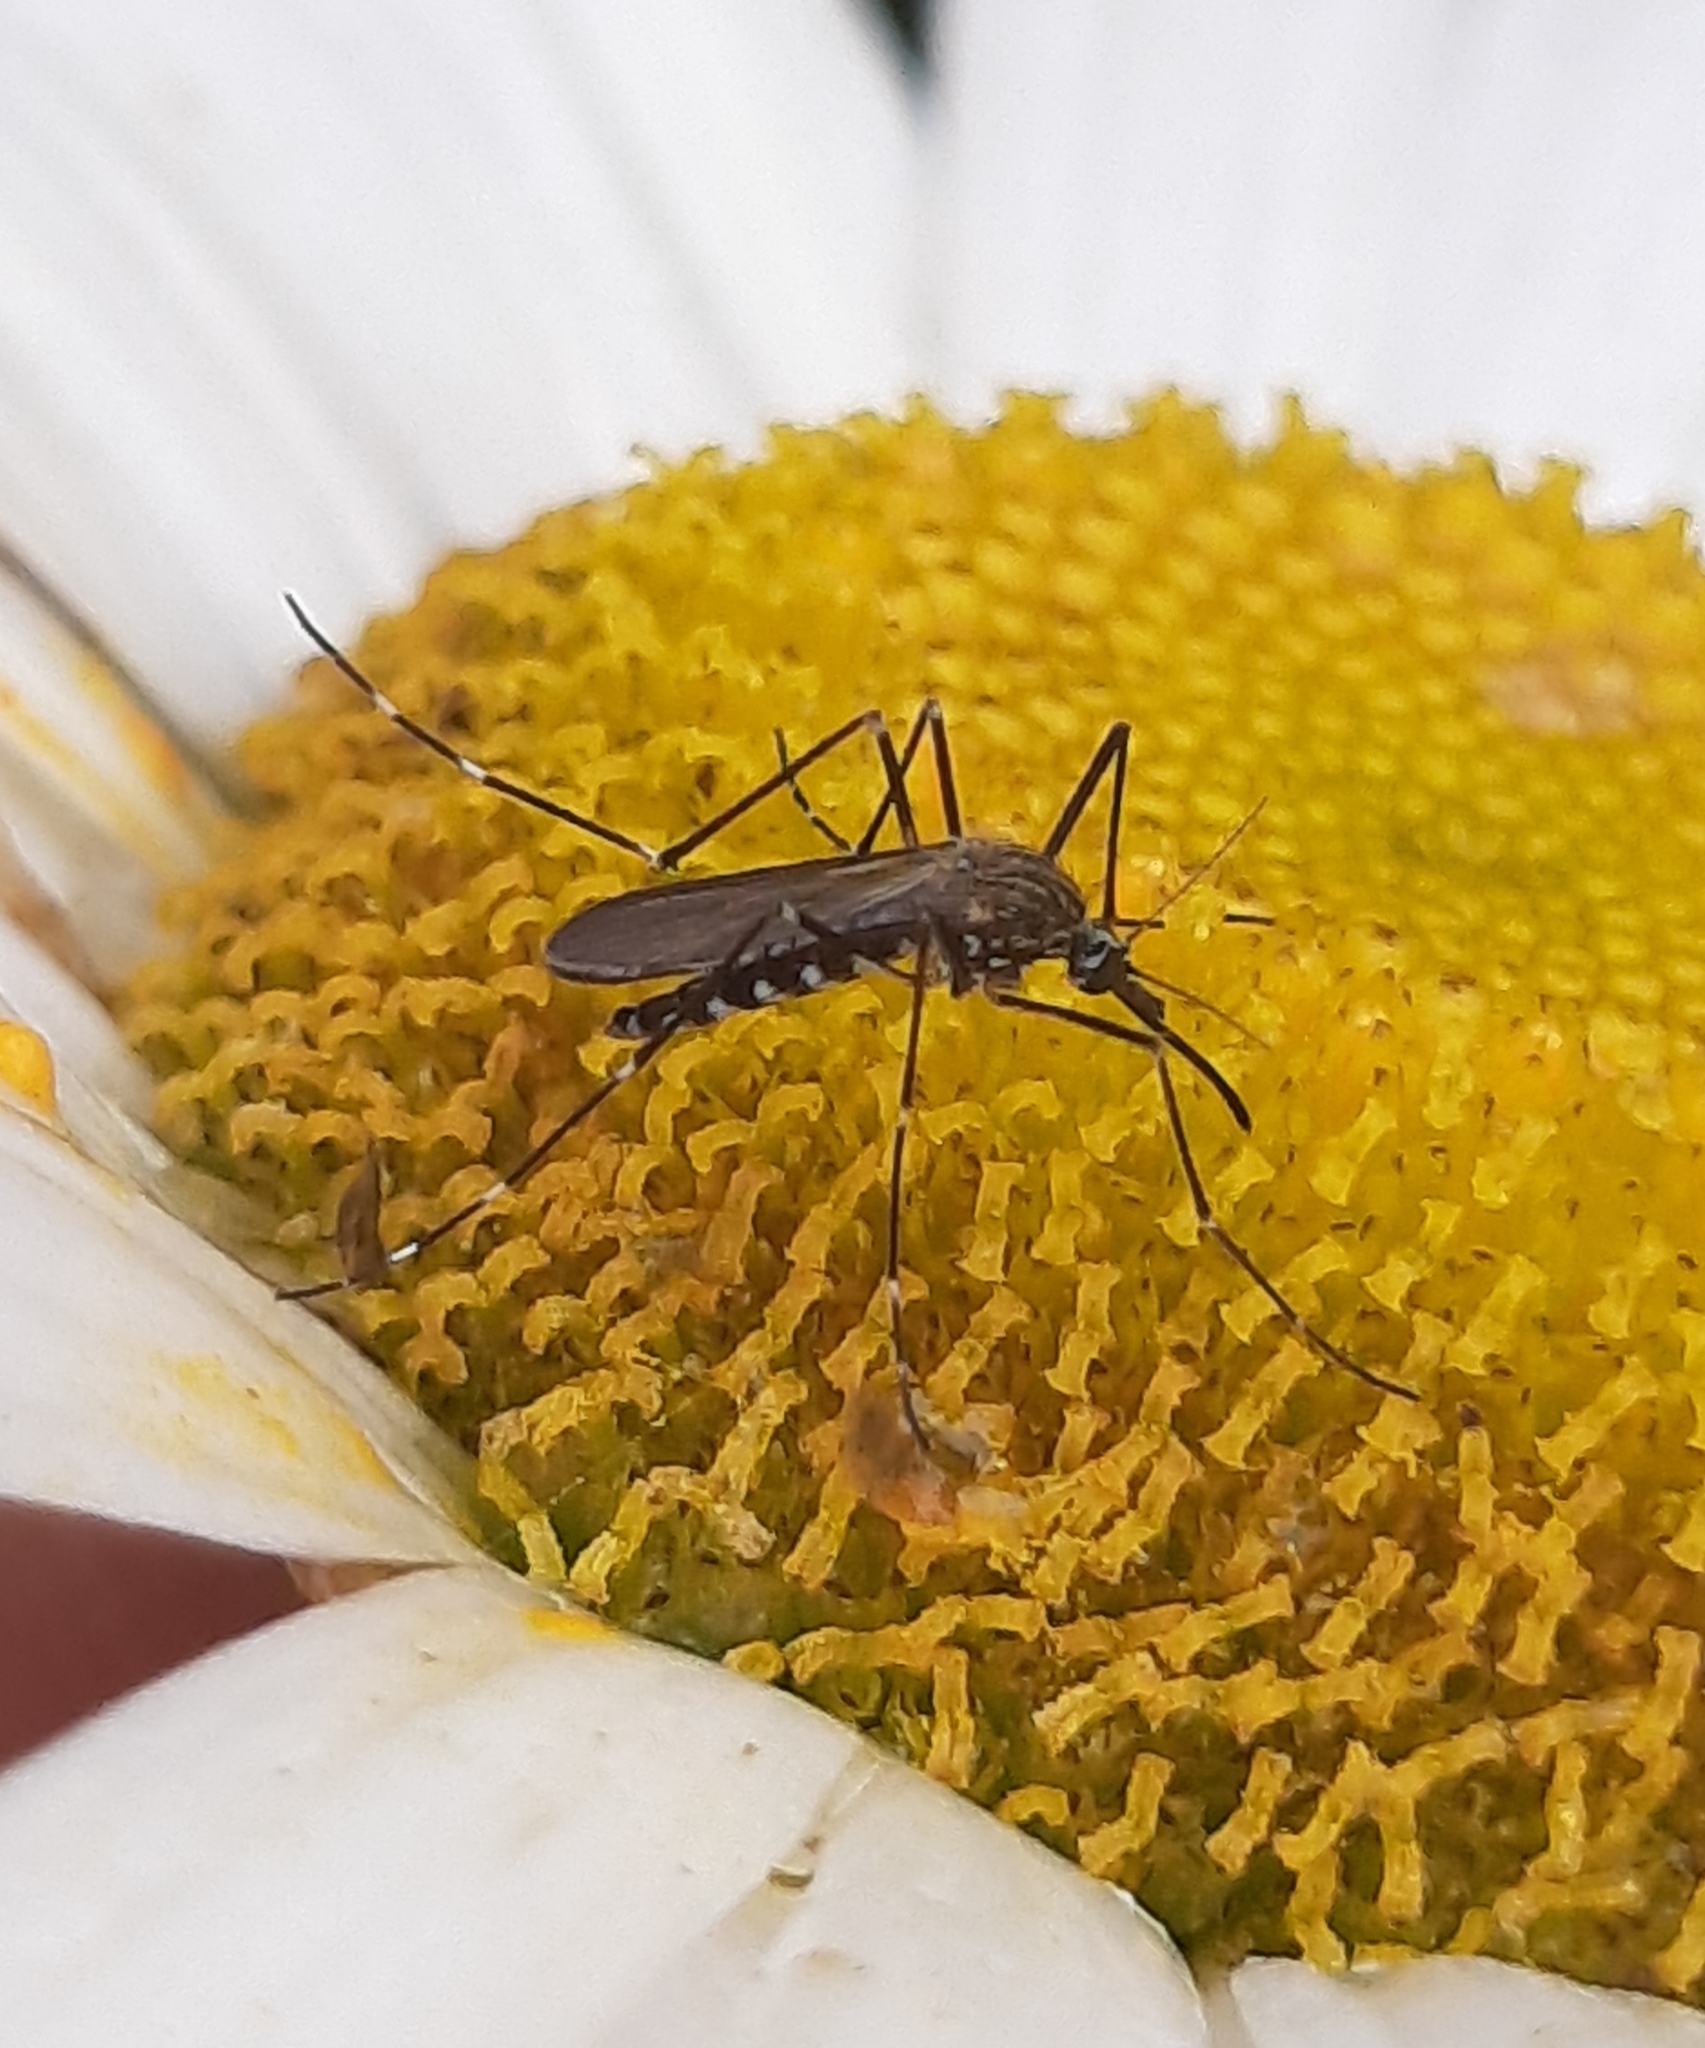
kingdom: Animalia
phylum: Arthropoda
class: Insecta
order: Diptera
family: Culicidae
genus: Aedes
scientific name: Aedes japonicus
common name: Asian bush mosquito
